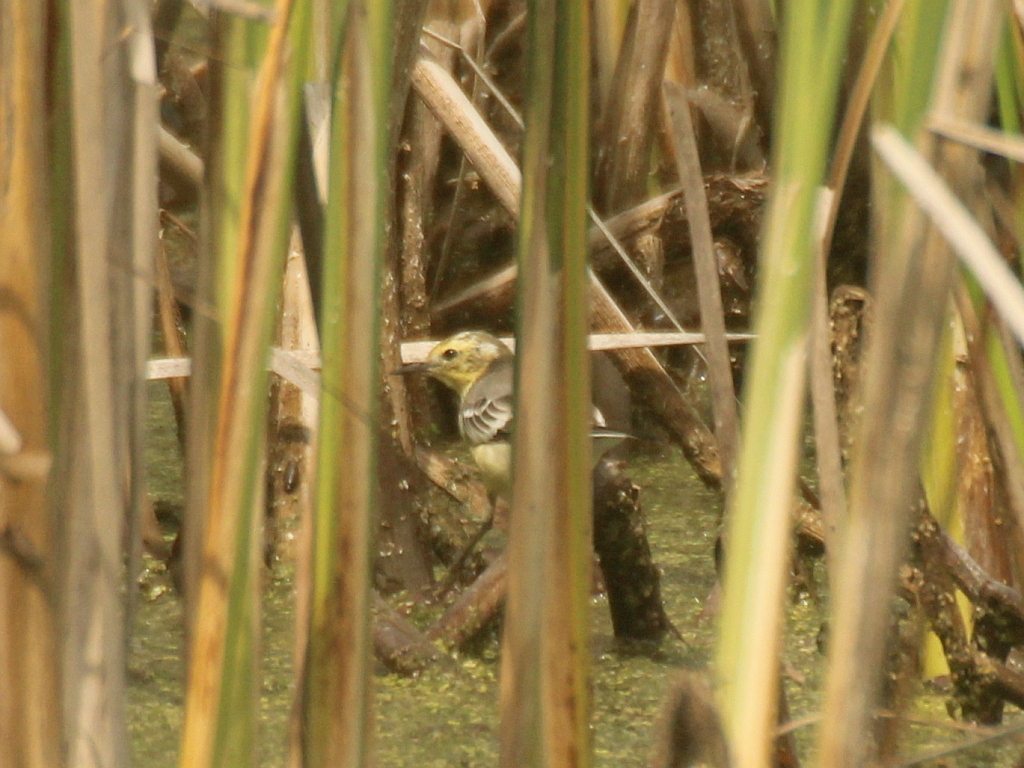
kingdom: Animalia
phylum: Chordata
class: Aves
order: Passeriformes
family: Motacillidae
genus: Motacilla
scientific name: Motacilla citreola
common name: Citrine wagtail
